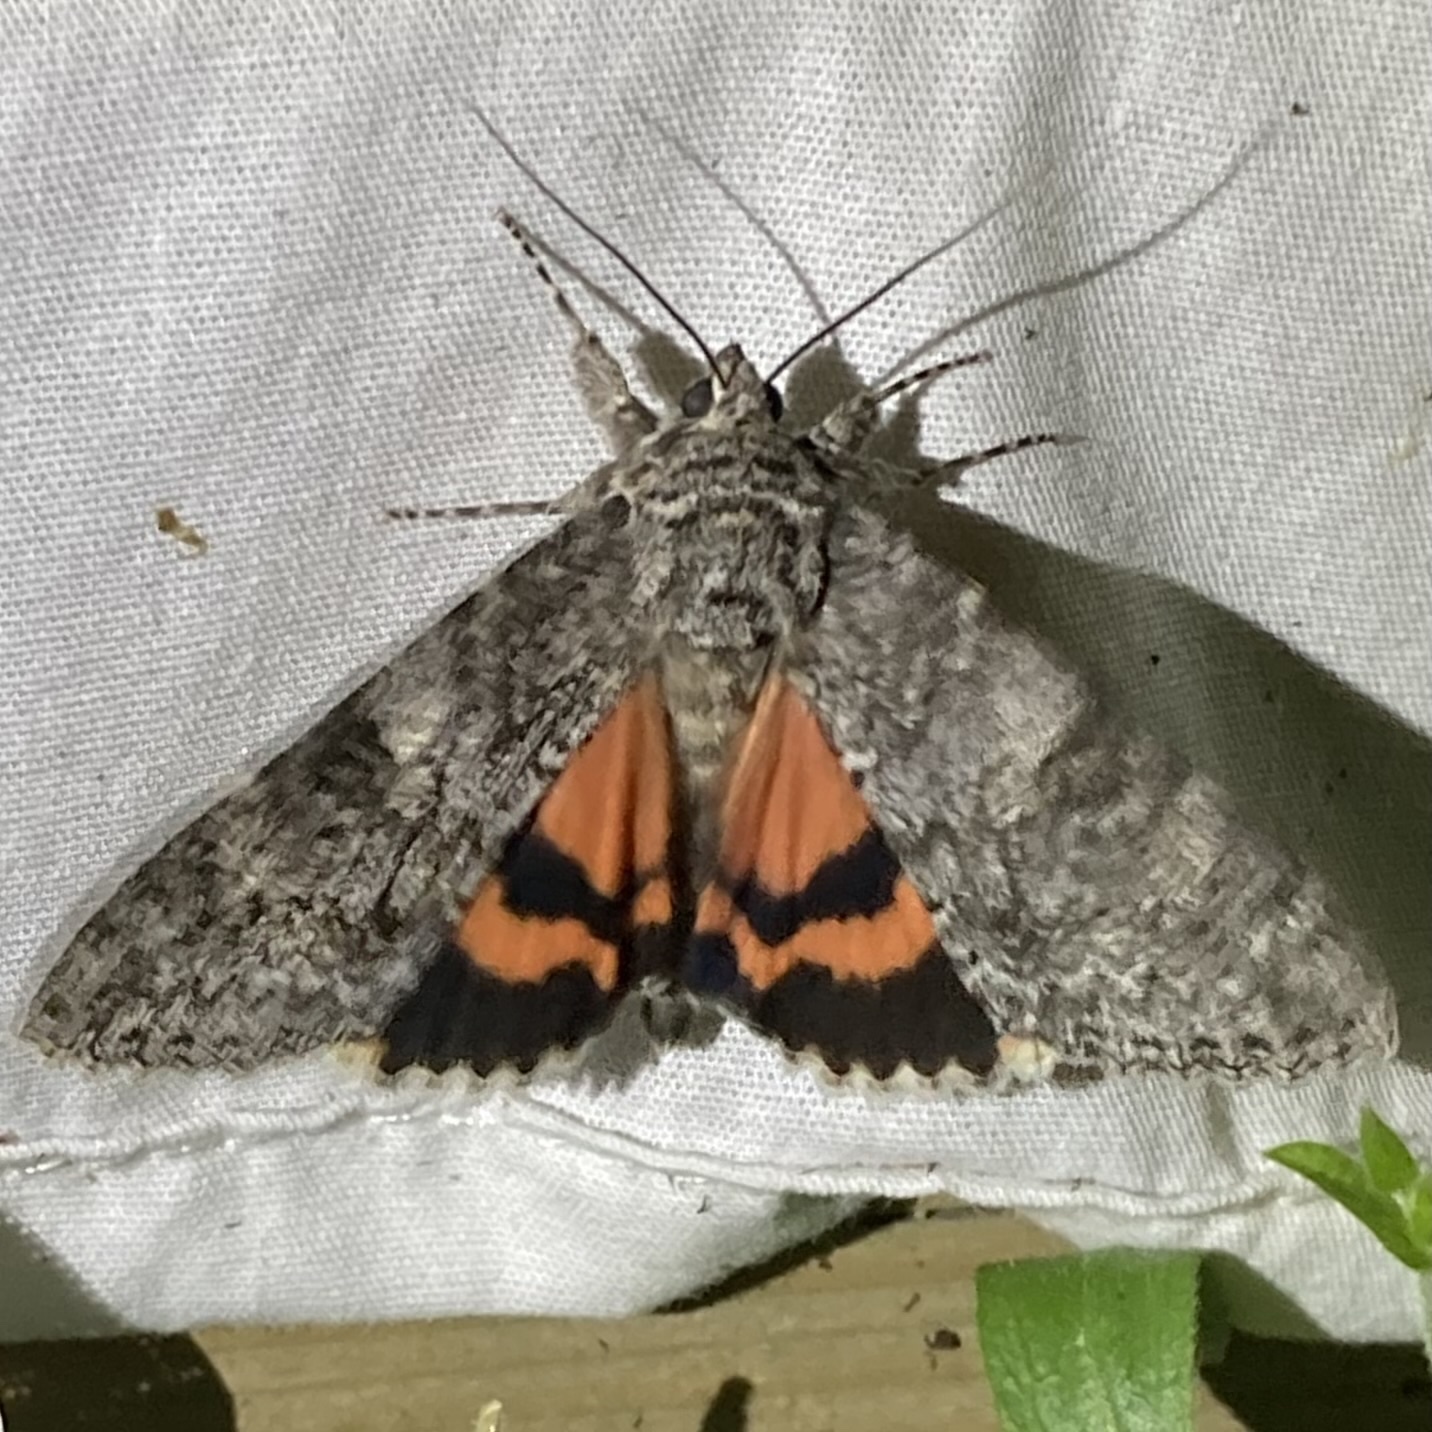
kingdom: Animalia
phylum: Arthropoda
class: Insecta
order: Lepidoptera
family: Erebidae
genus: Catocala
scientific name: Catocala meskei
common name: Meske's underwing moth
